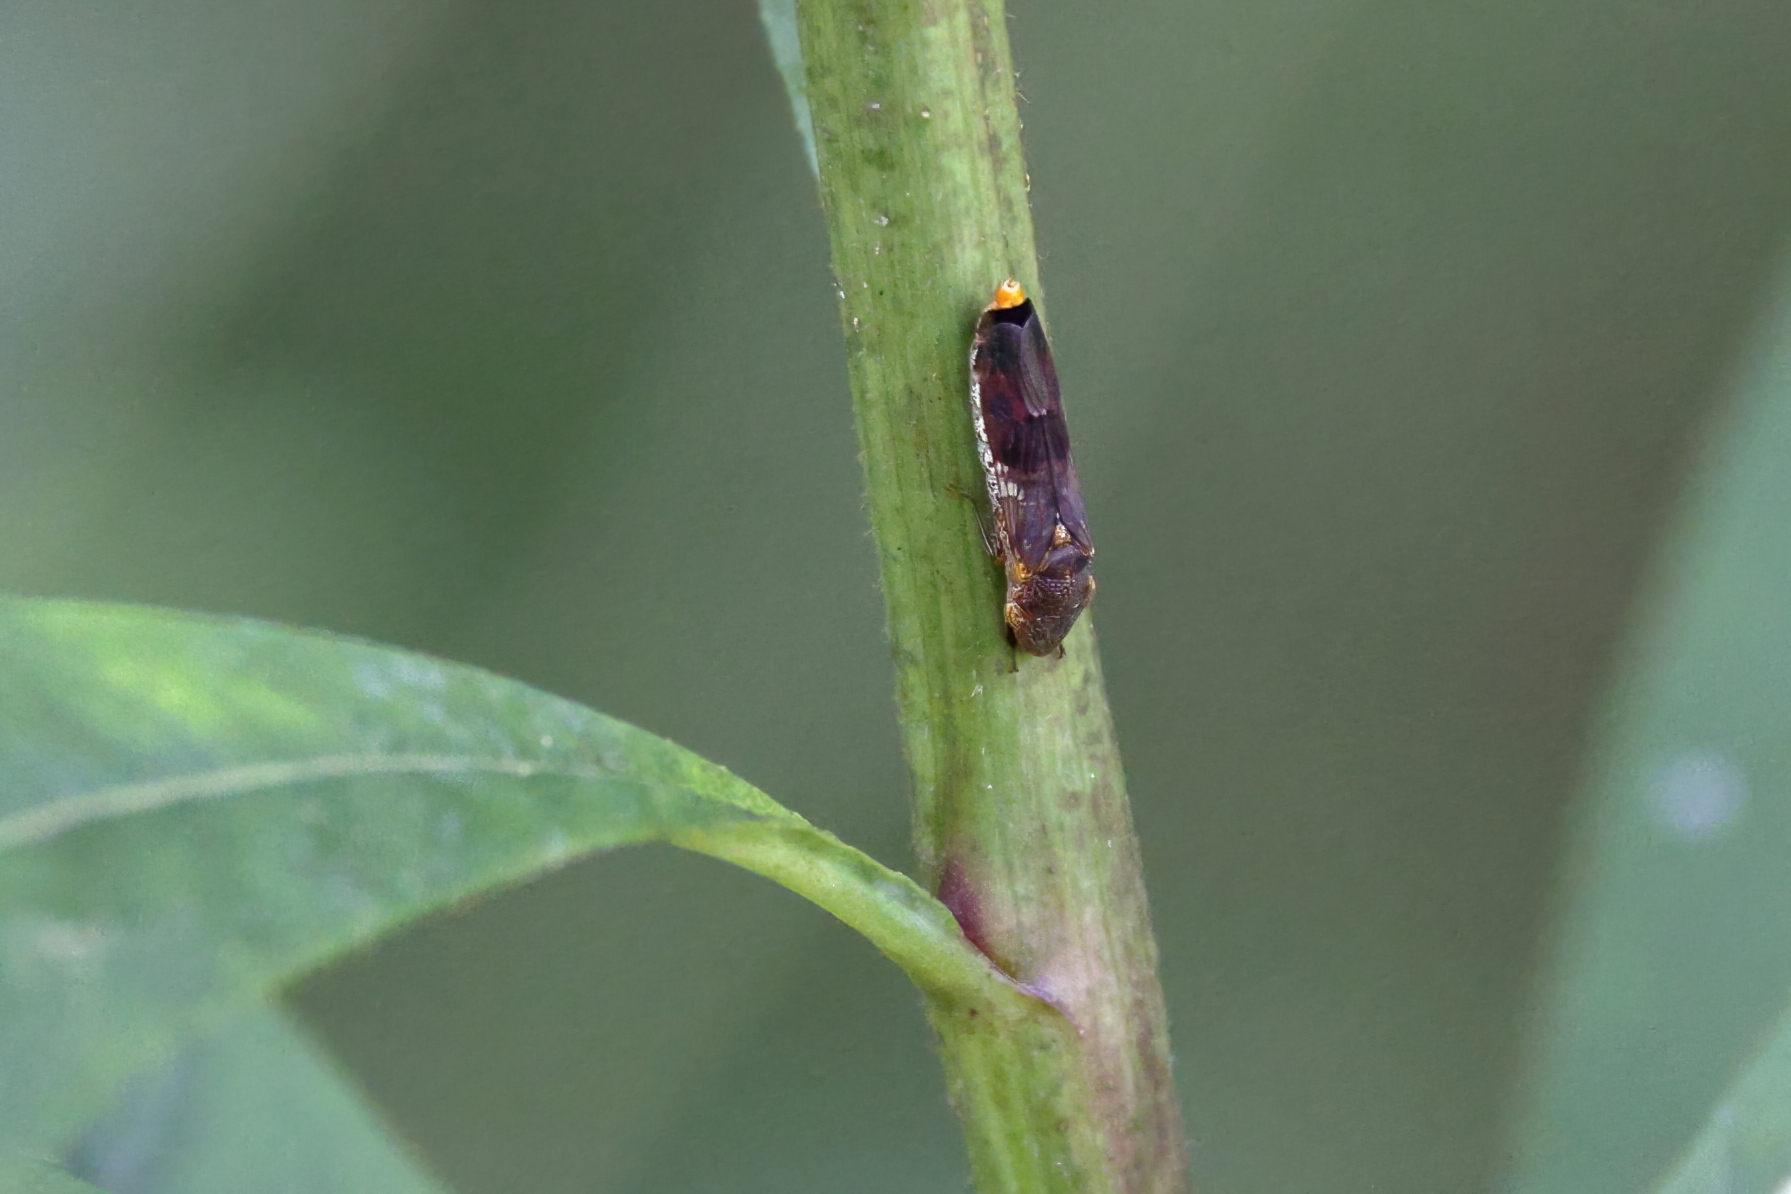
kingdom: Animalia
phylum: Arthropoda
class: Insecta
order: Hemiptera
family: Cicadellidae
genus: Homalodisca
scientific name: Homalodisca vitripennis
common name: Glassy-winged sharpshooter
